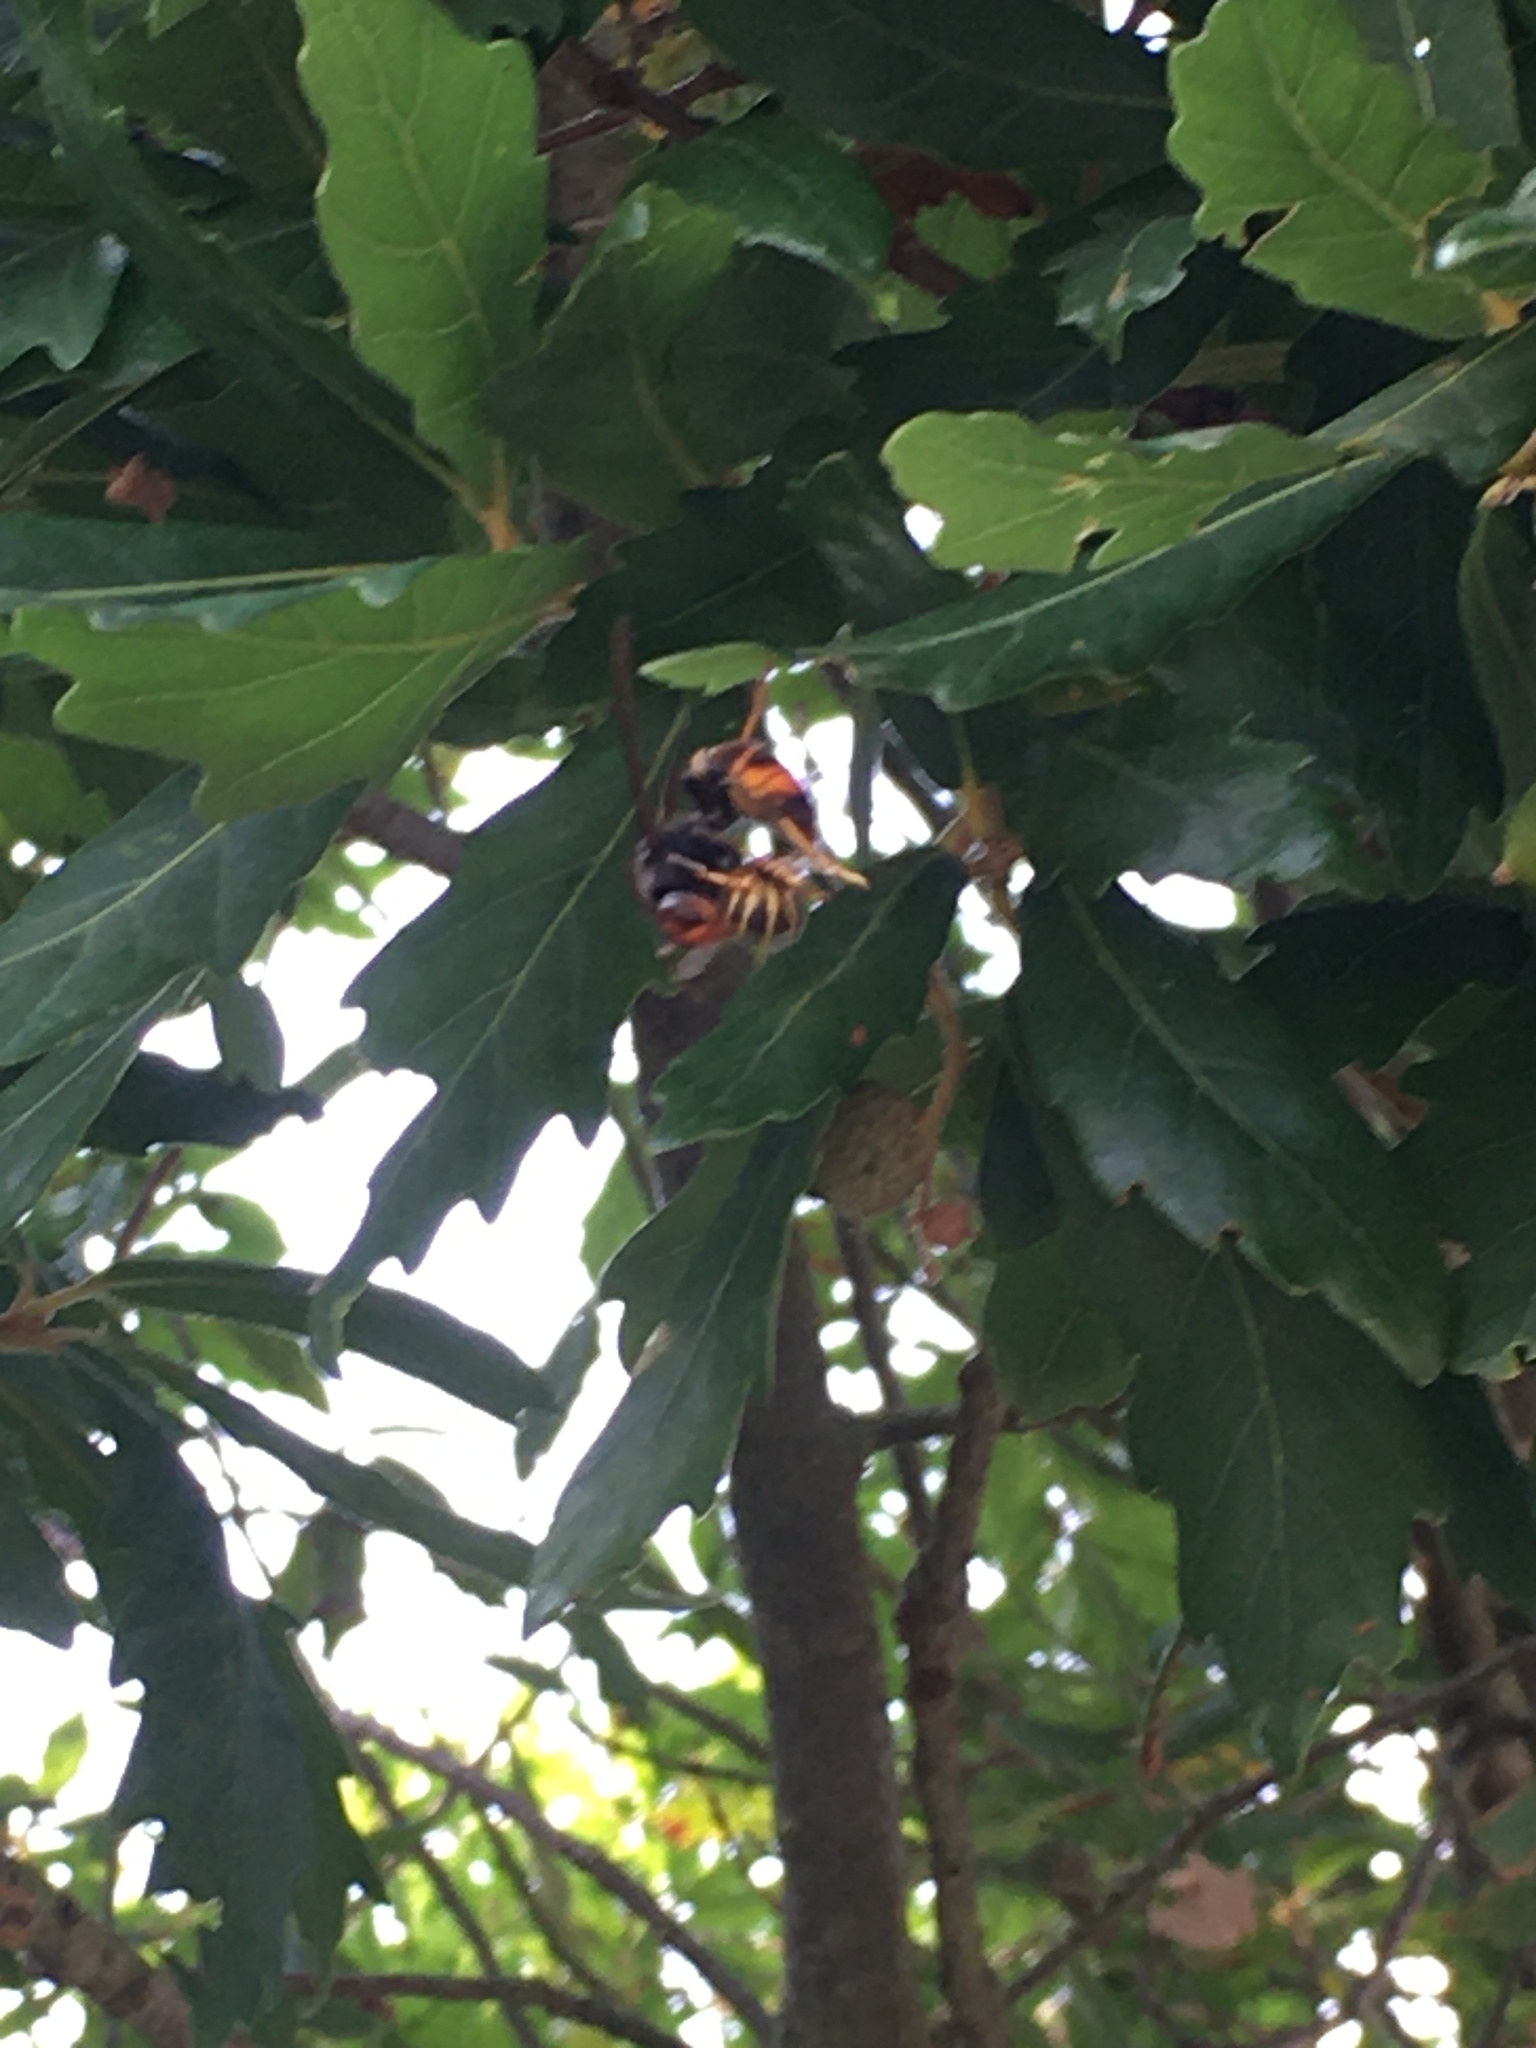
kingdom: Animalia
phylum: Arthropoda
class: Insecta
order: Hymenoptera
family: Vespidae
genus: Vespa
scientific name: Vespa velutina
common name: Asian hornet
